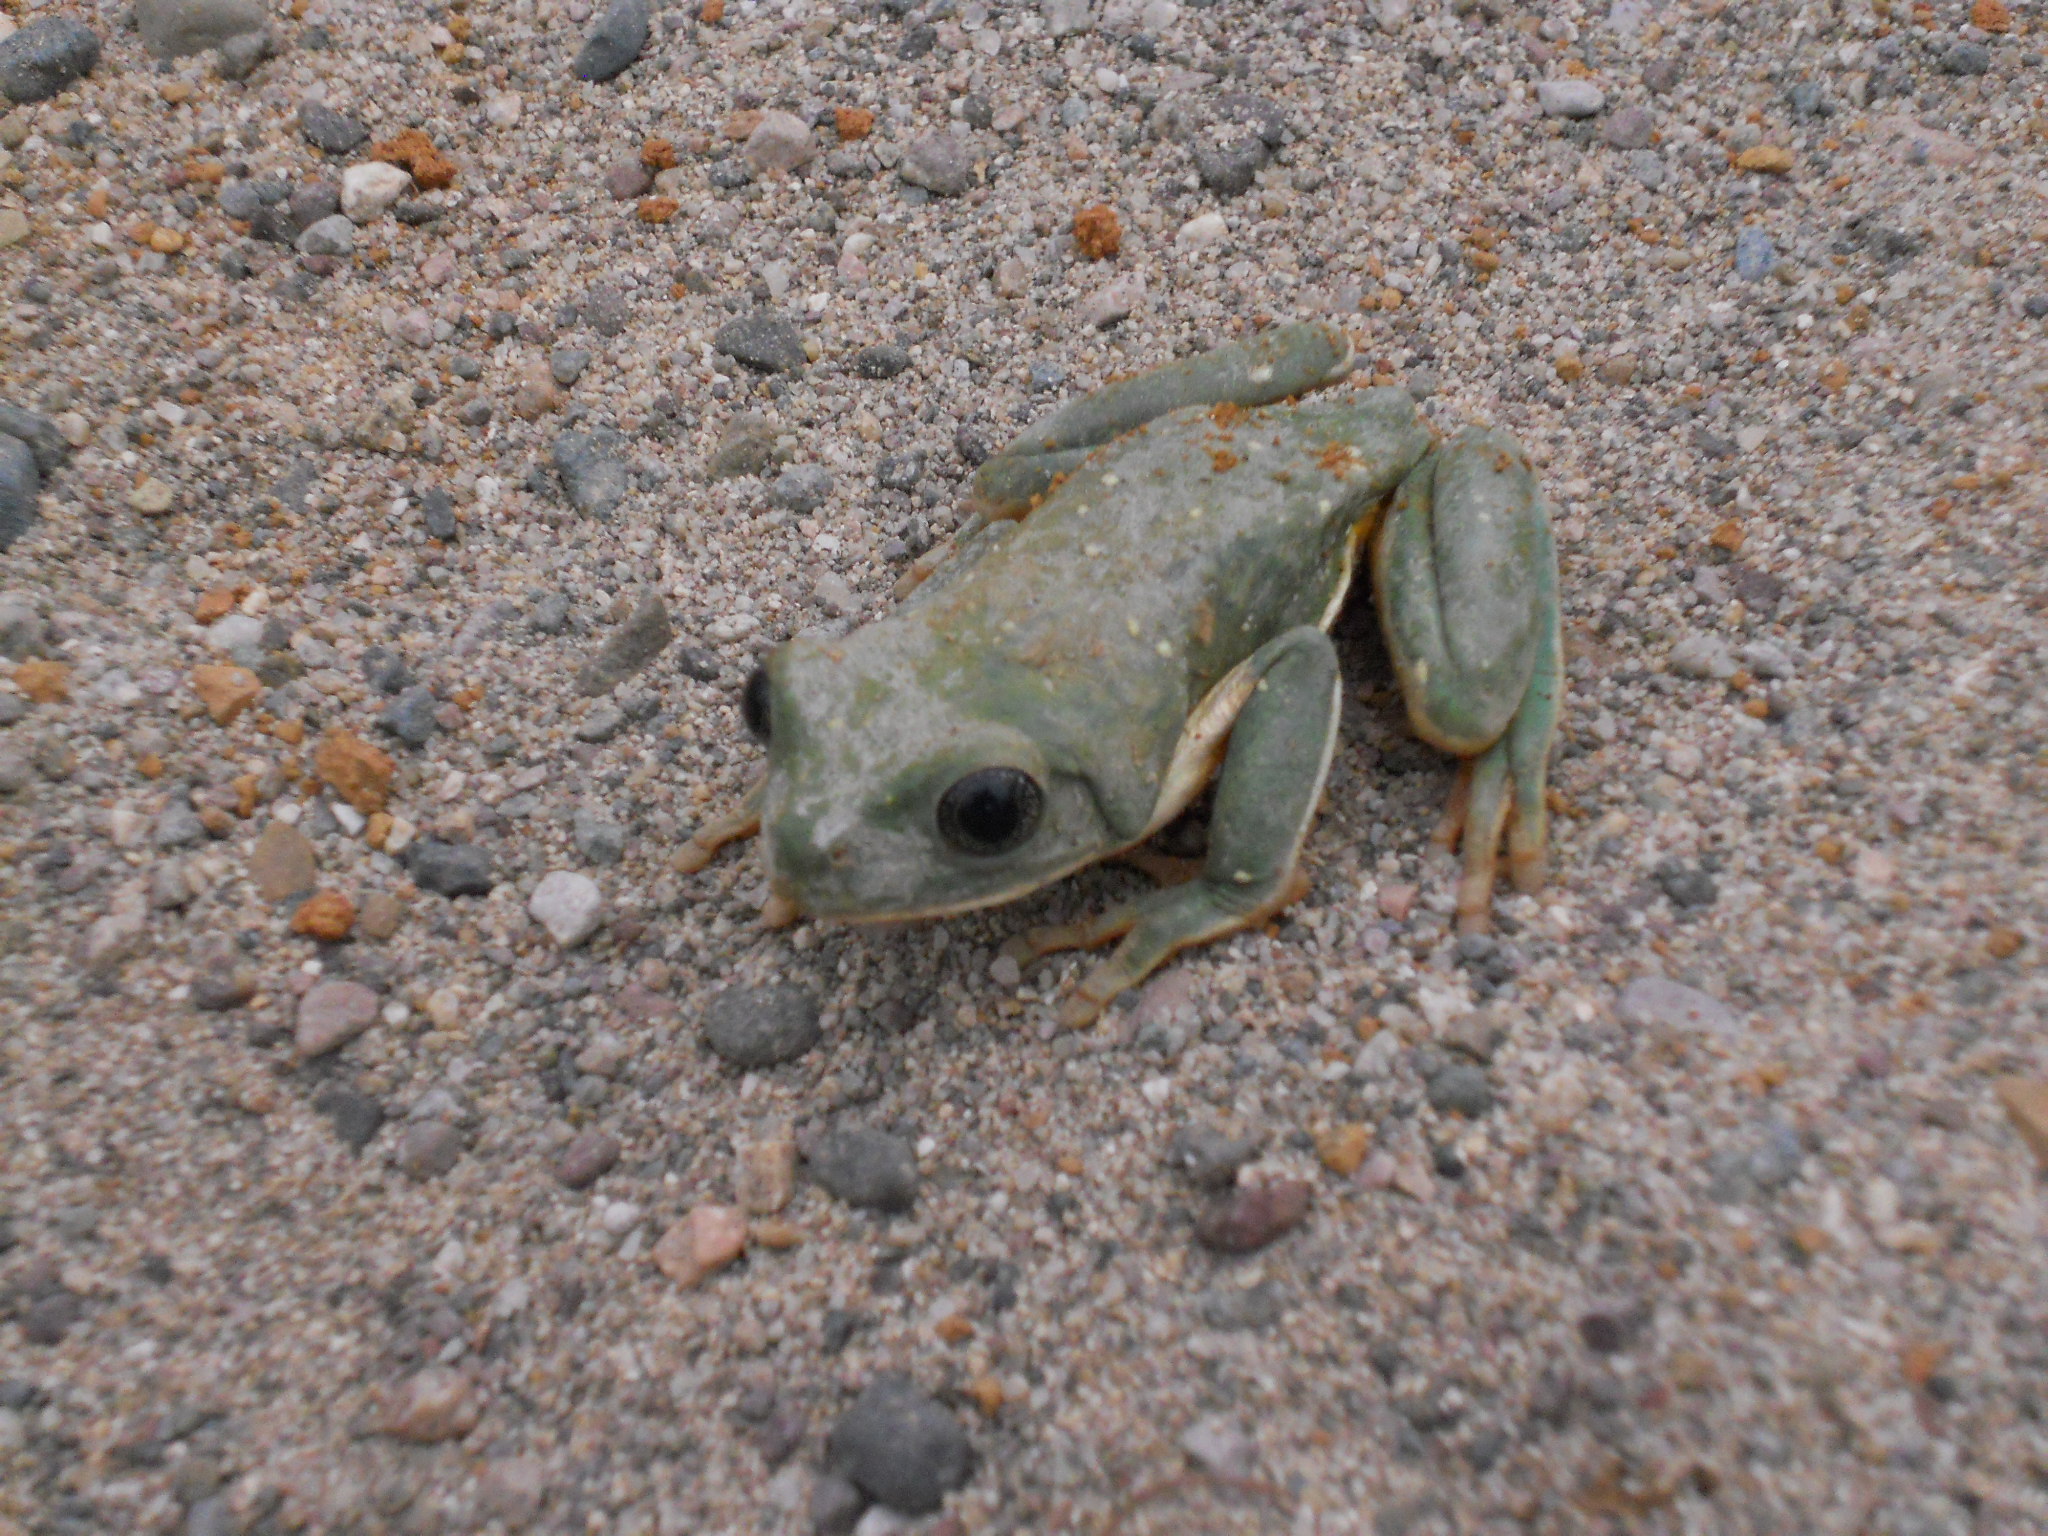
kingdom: Animalia
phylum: Chordata
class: Amphibia
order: Anura
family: Phyllomedusidae
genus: Agalychnis
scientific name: Agalychnis dacnicolor
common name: Mexican giant tree frog
